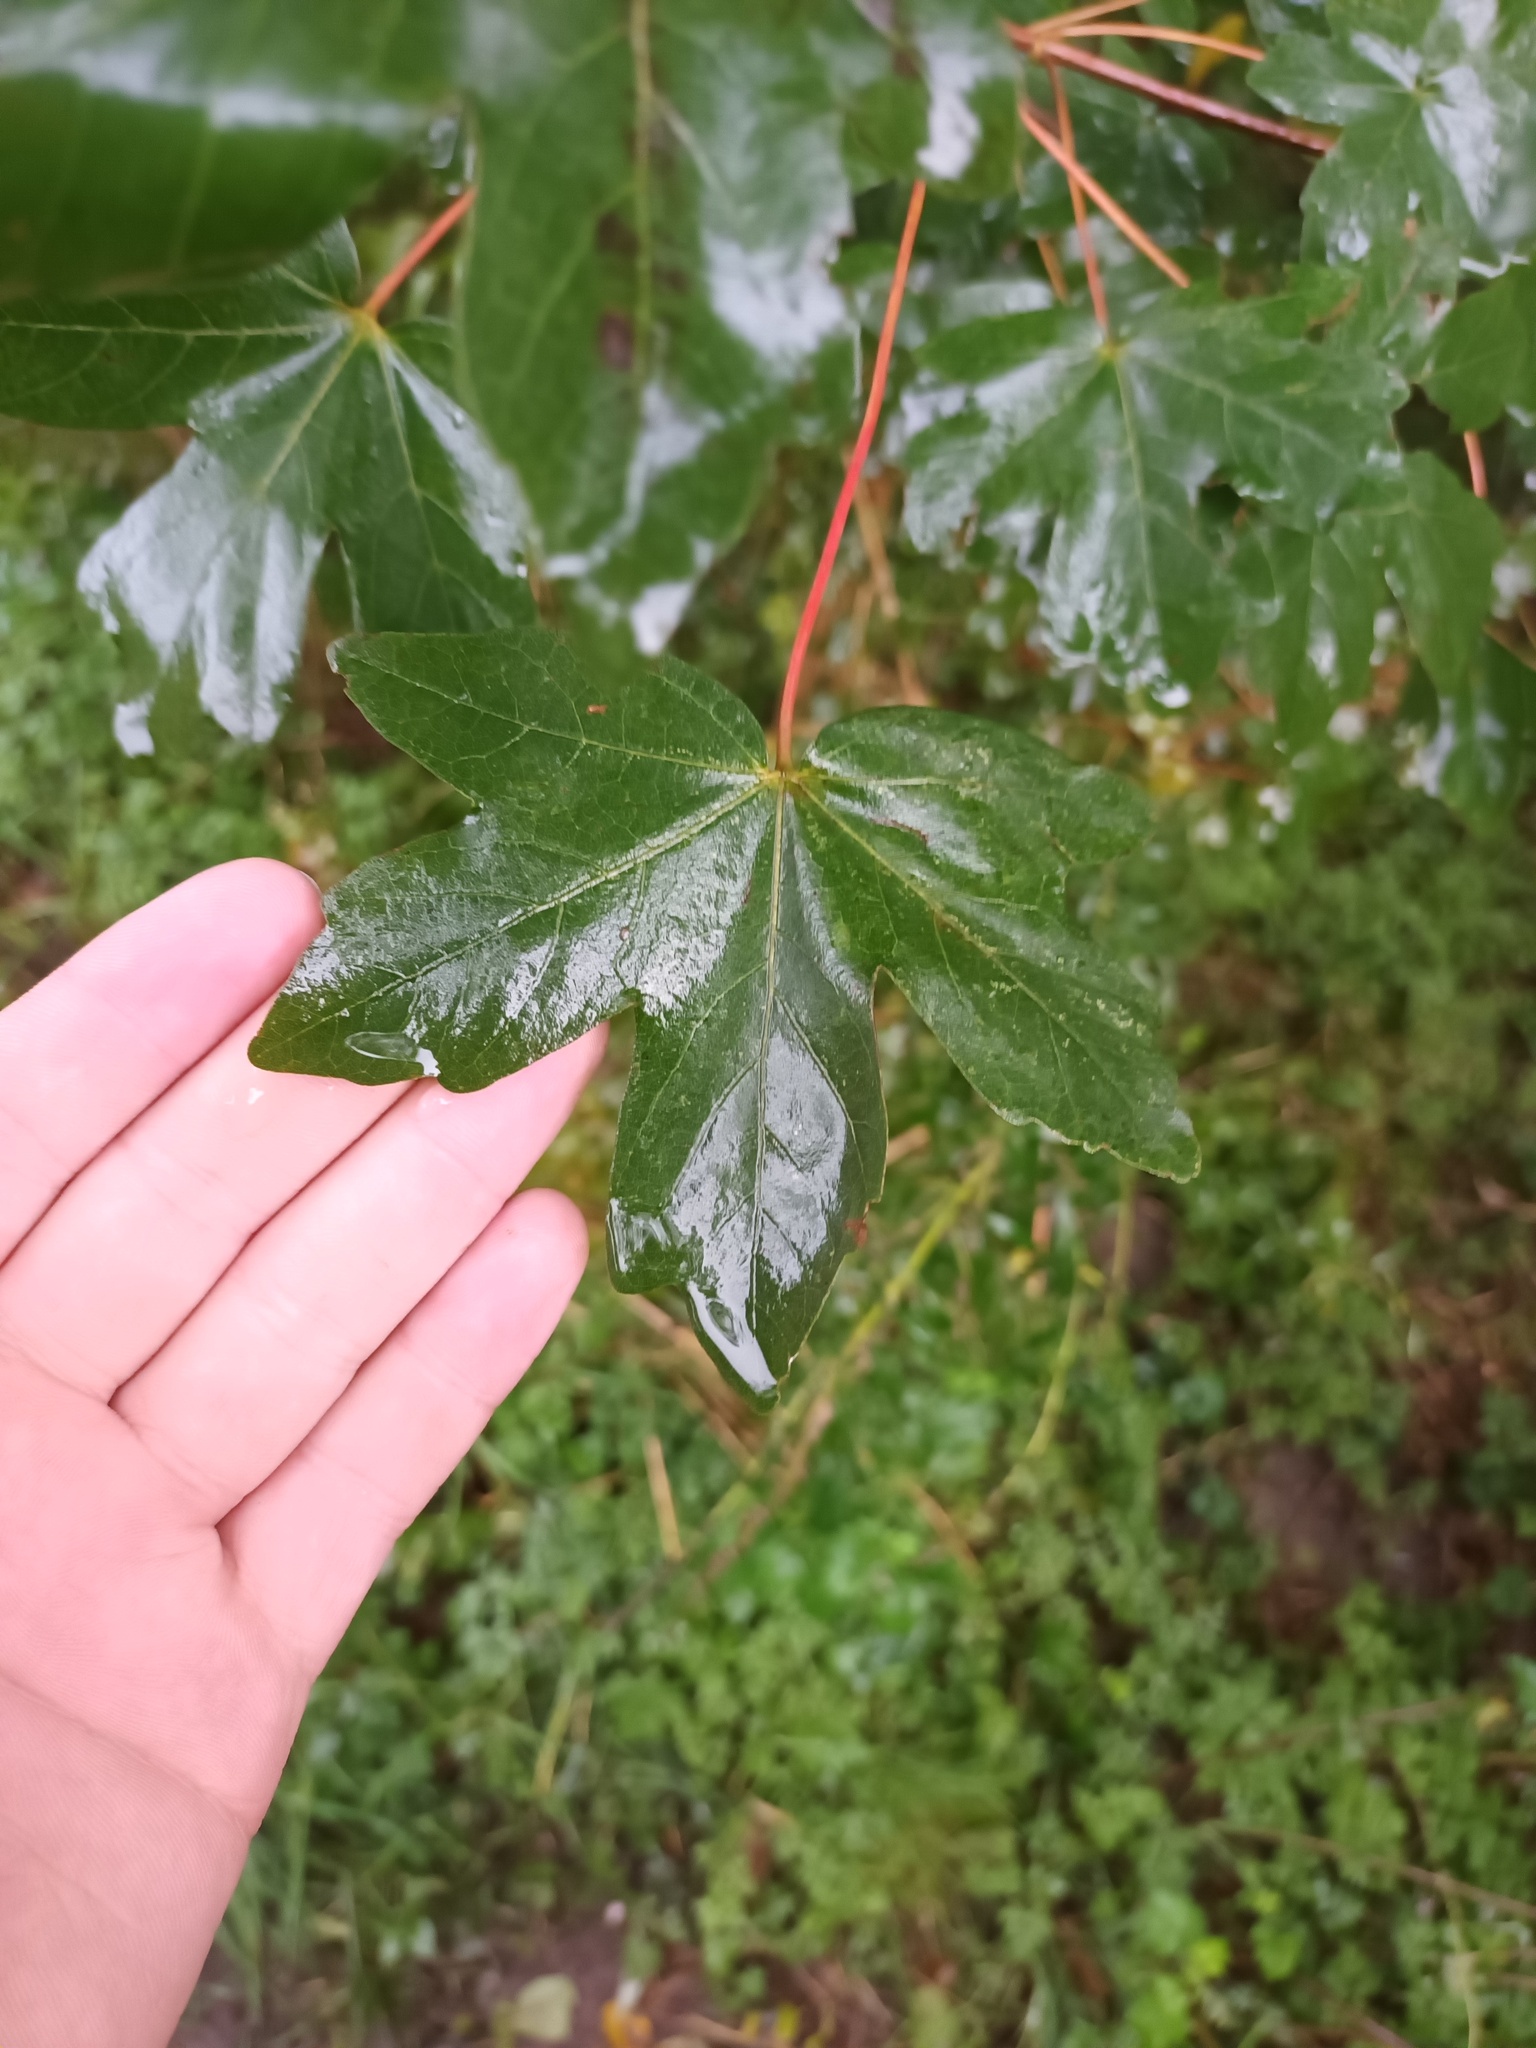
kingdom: Plantae
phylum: Tracheophyta
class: Magnoliopsida
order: Sapindales
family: Sapindaceae
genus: Acer
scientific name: Acer campestre
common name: Field maple
